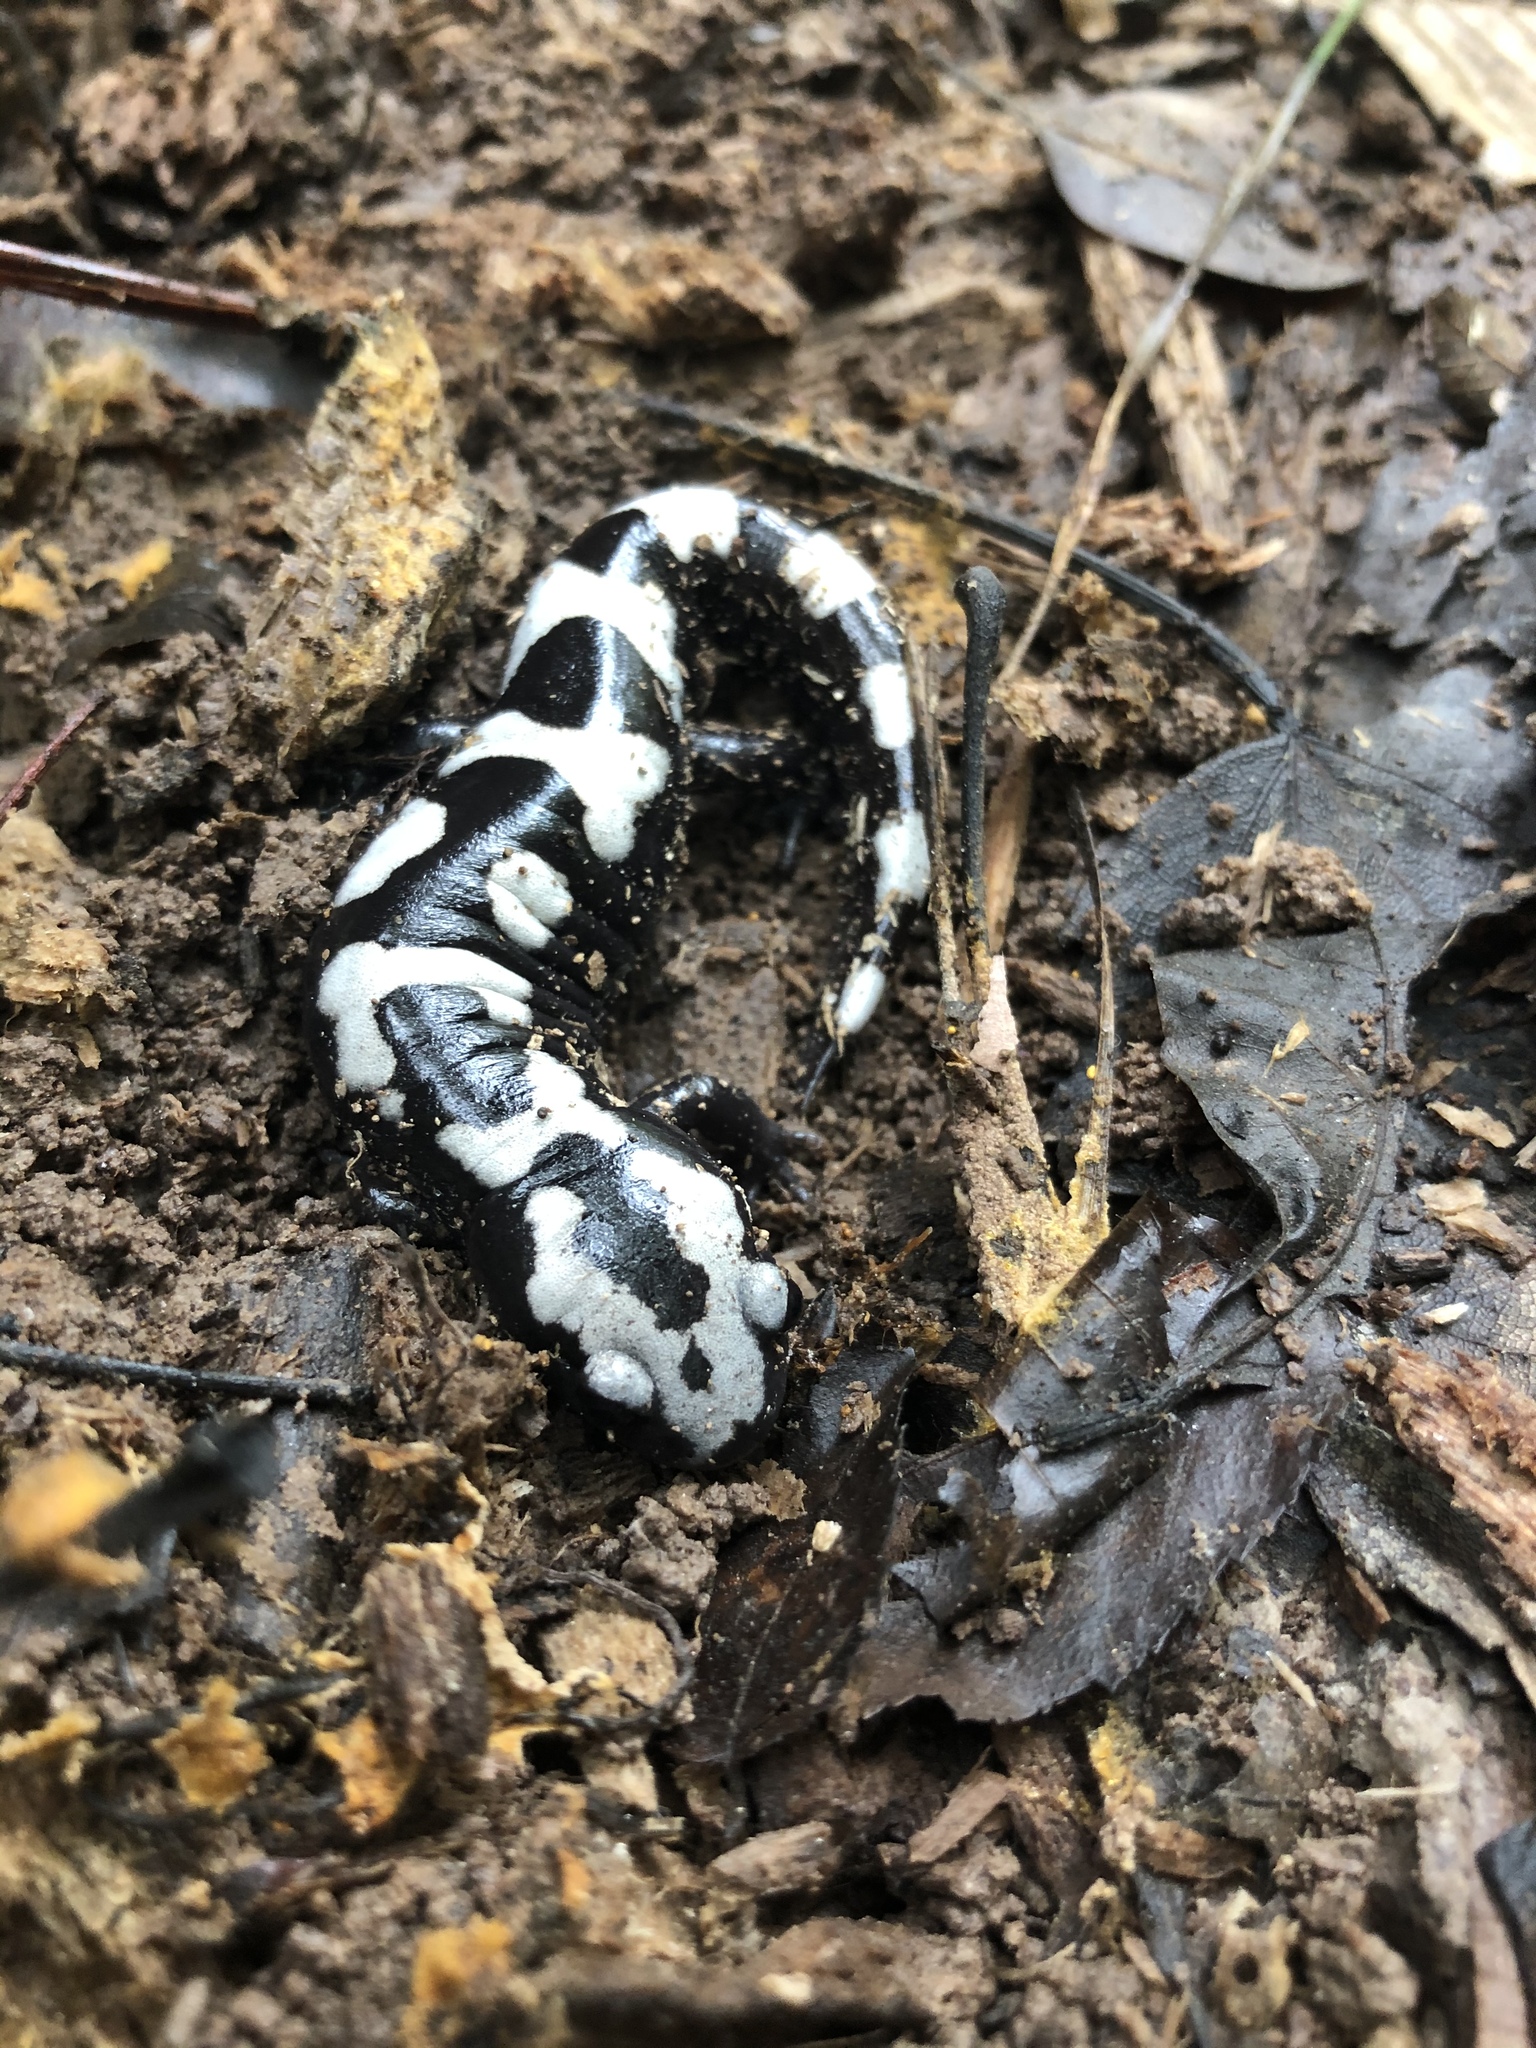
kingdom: Animalia
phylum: Chordata
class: Amphibia
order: Caudata
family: Ambystomatidae
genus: Ambystoma
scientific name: Ambystoma opacum
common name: Marbled salamander
